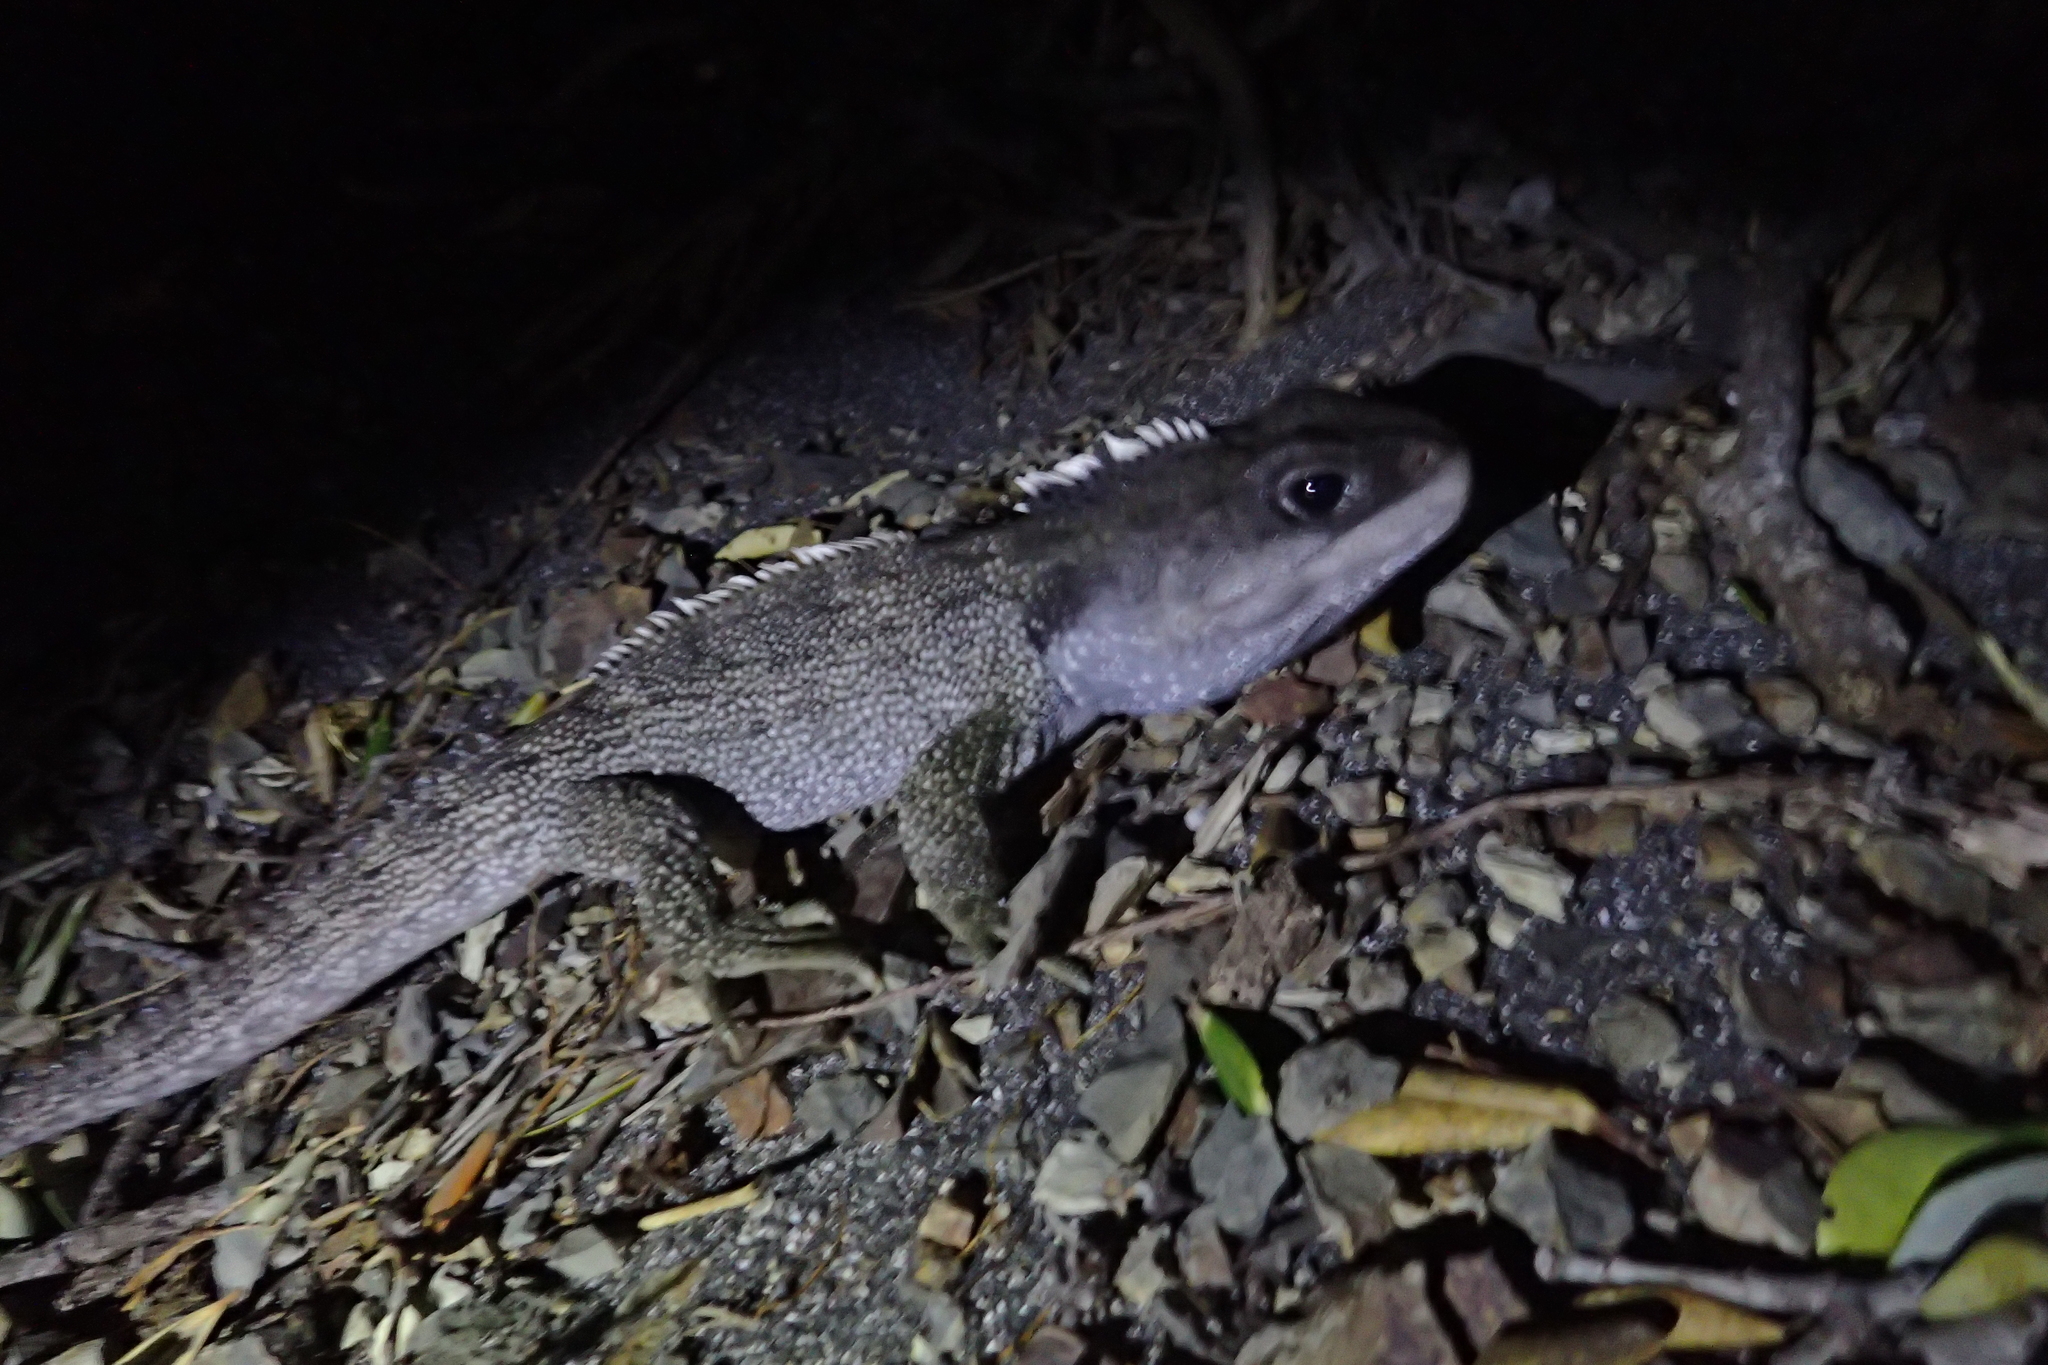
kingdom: Animalia
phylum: Chordata
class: Sphenodontia
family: Sphenodontidae
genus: Sphenodon
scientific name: Sphenodon punctatus
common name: Tuatara
